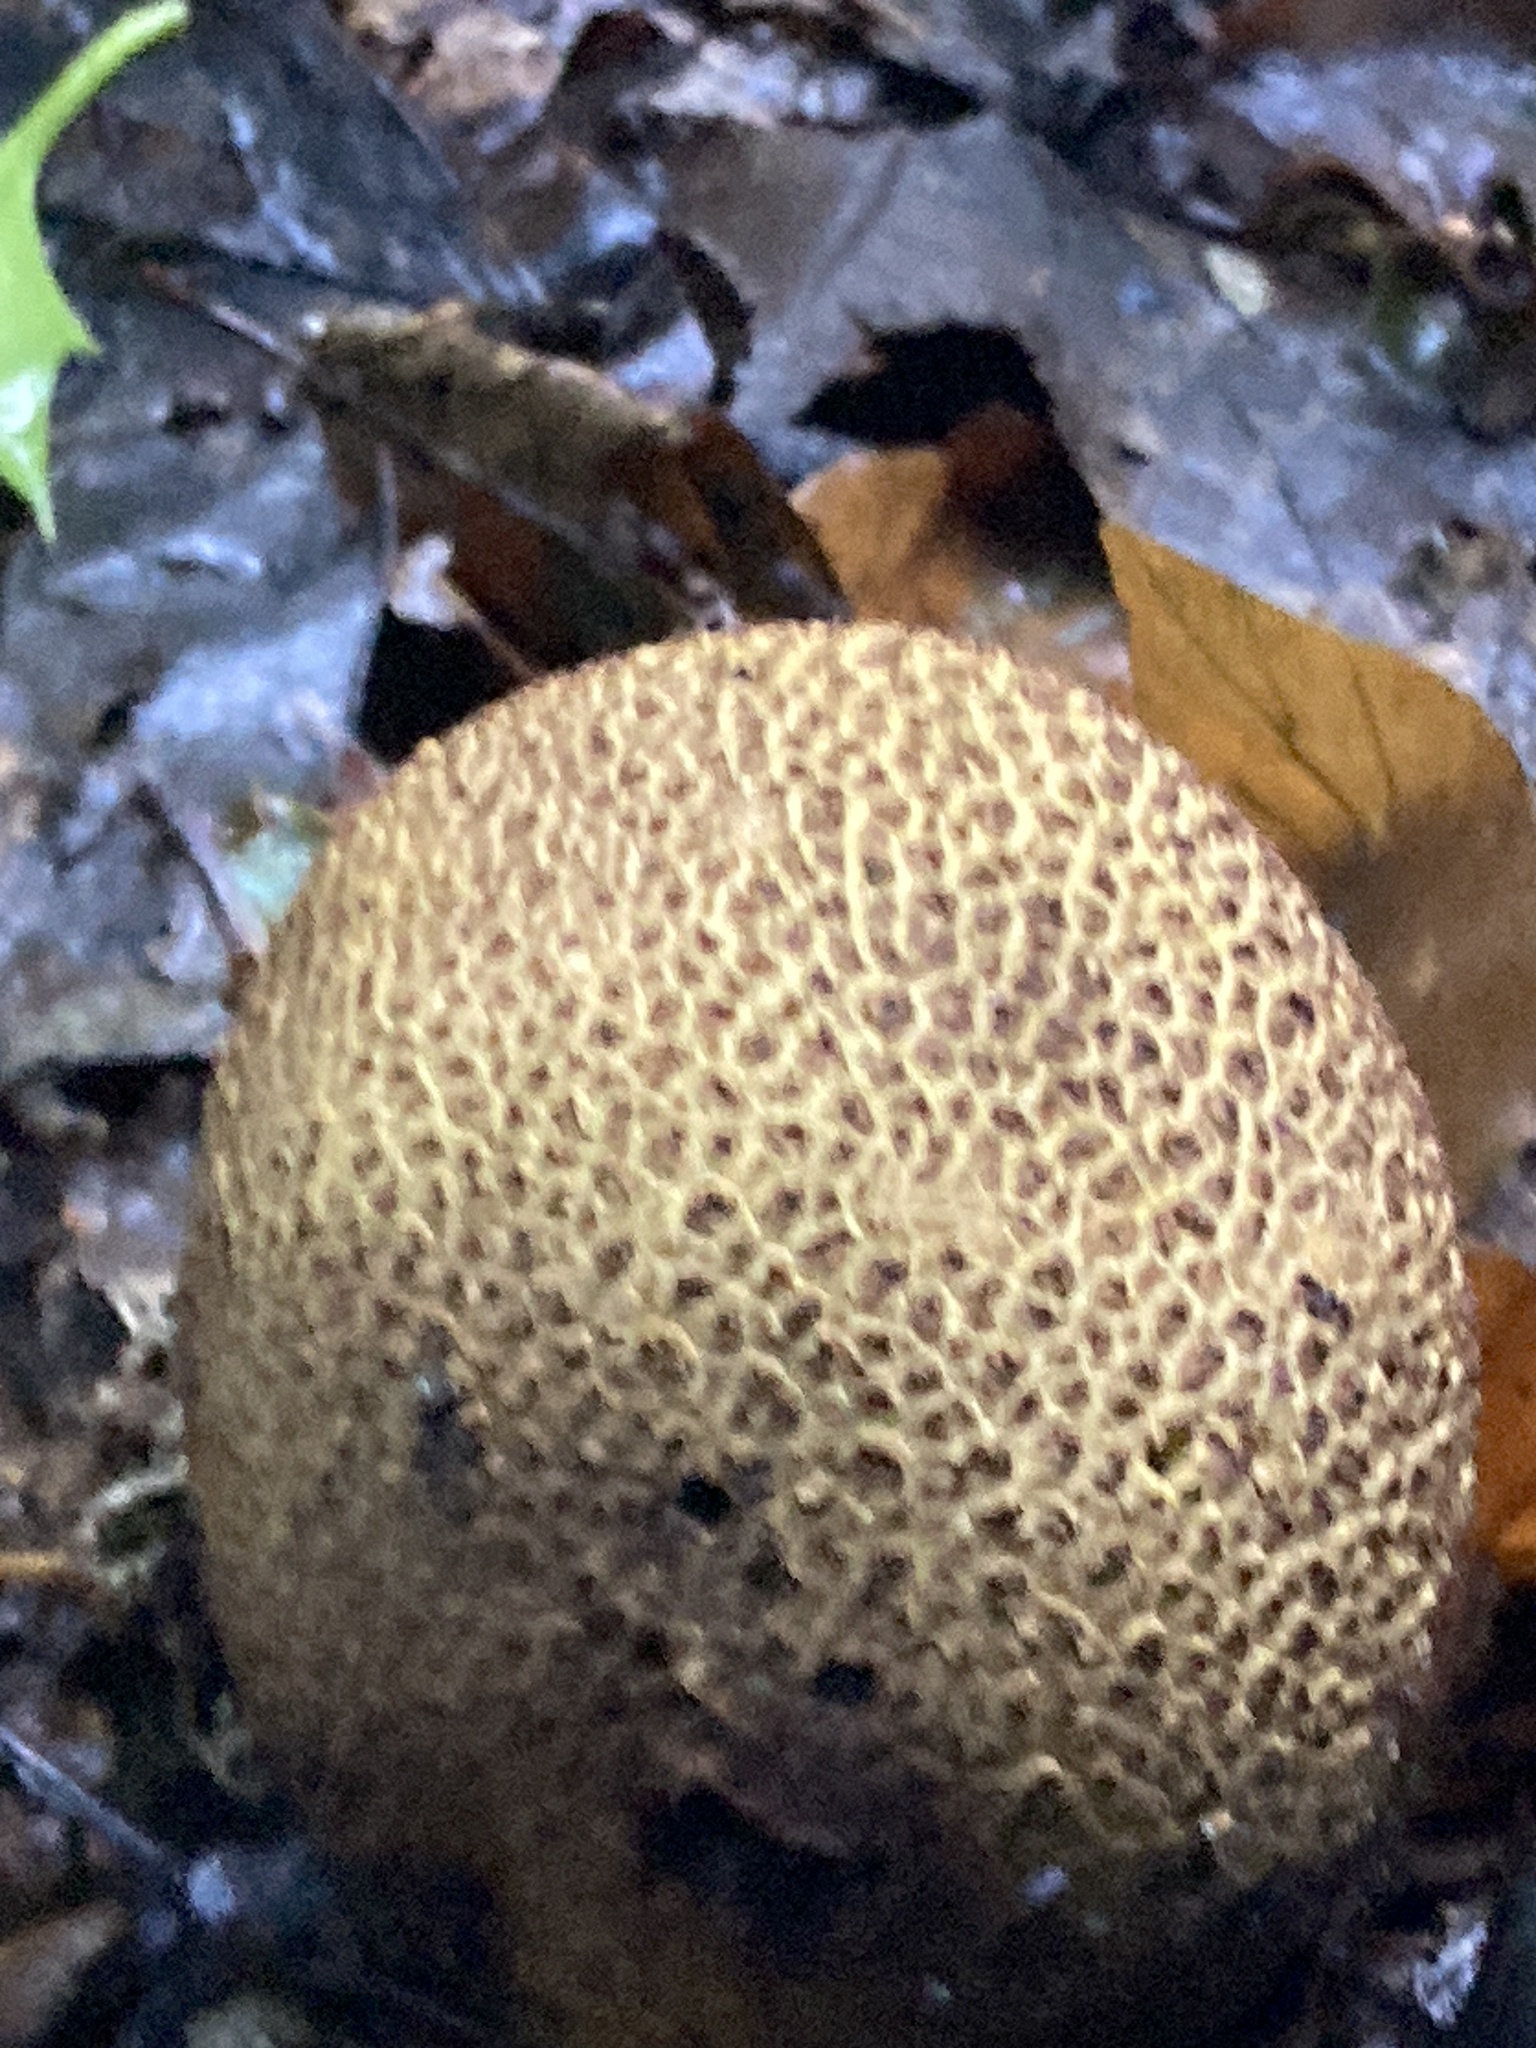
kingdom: Fungi
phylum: Basidiomycota
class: Agaricomycetes
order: Boletales
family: Sclerodermataceae
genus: Scleroderma
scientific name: Scleroderma citrinum
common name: Common earthball
